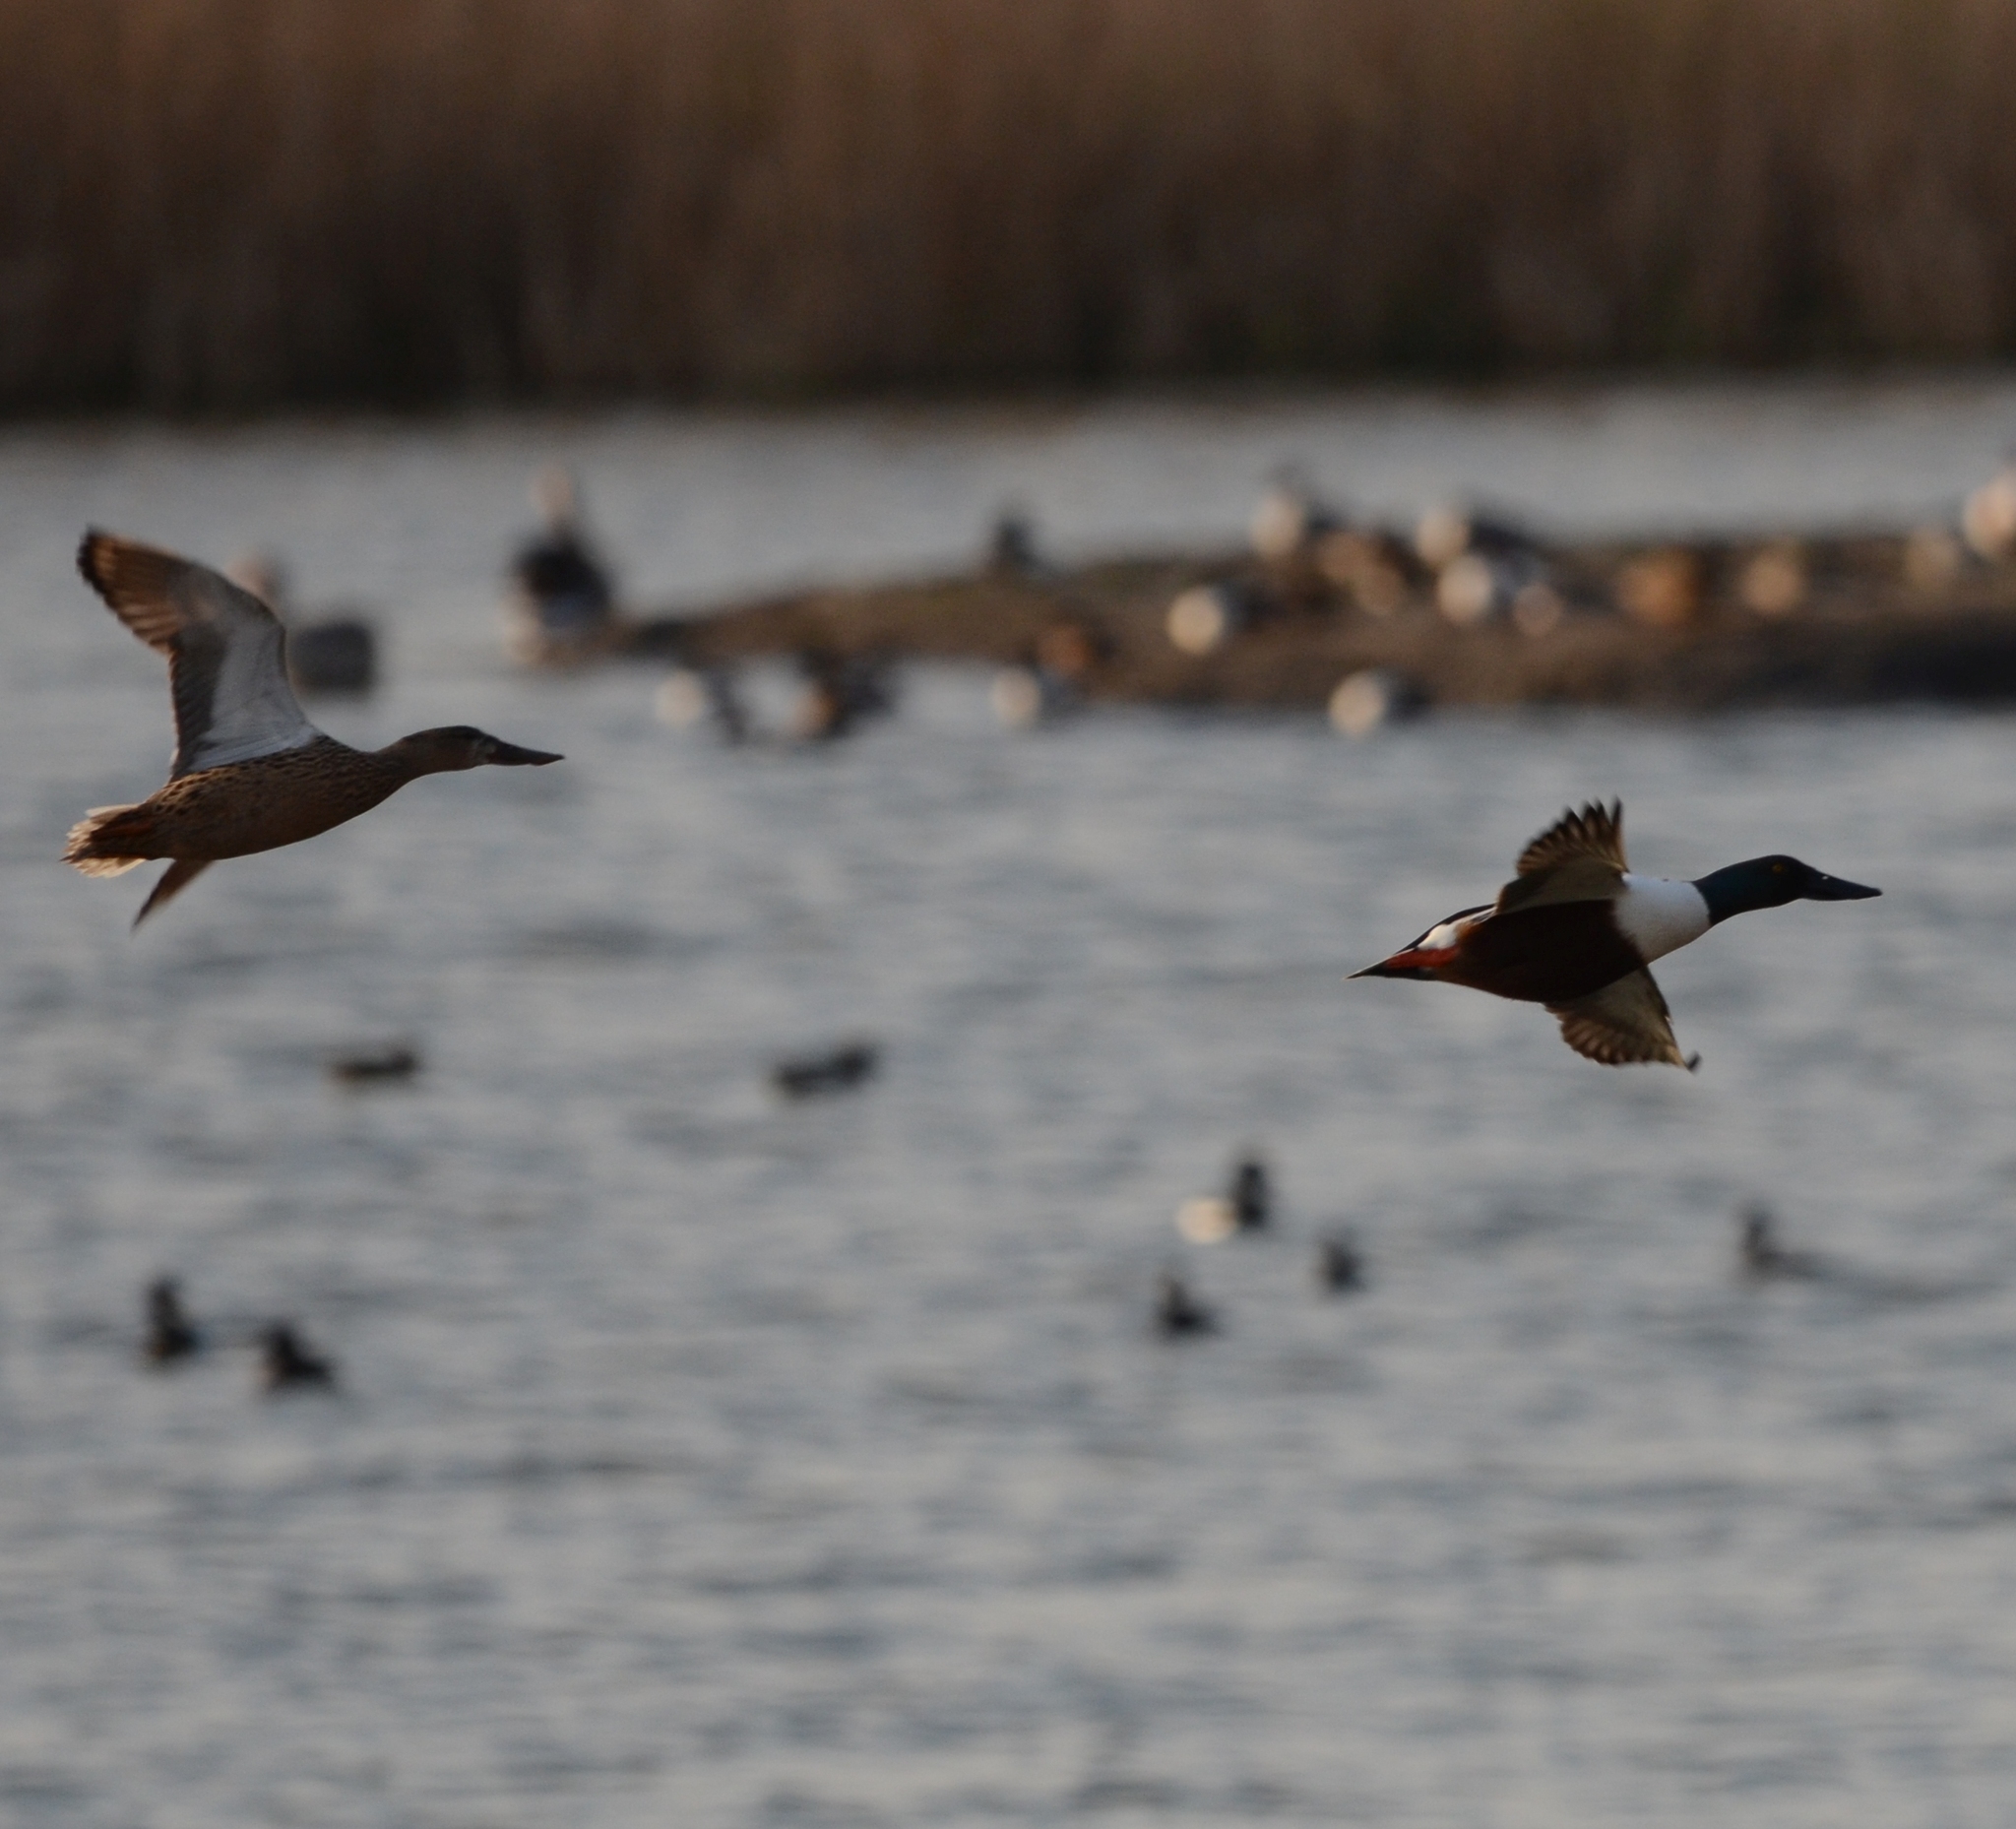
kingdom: Animalia
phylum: Chordata
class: Aves
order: Anseriformes
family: Anatidae
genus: Spatula
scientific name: Spatula clypeata
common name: Northern shoveler
